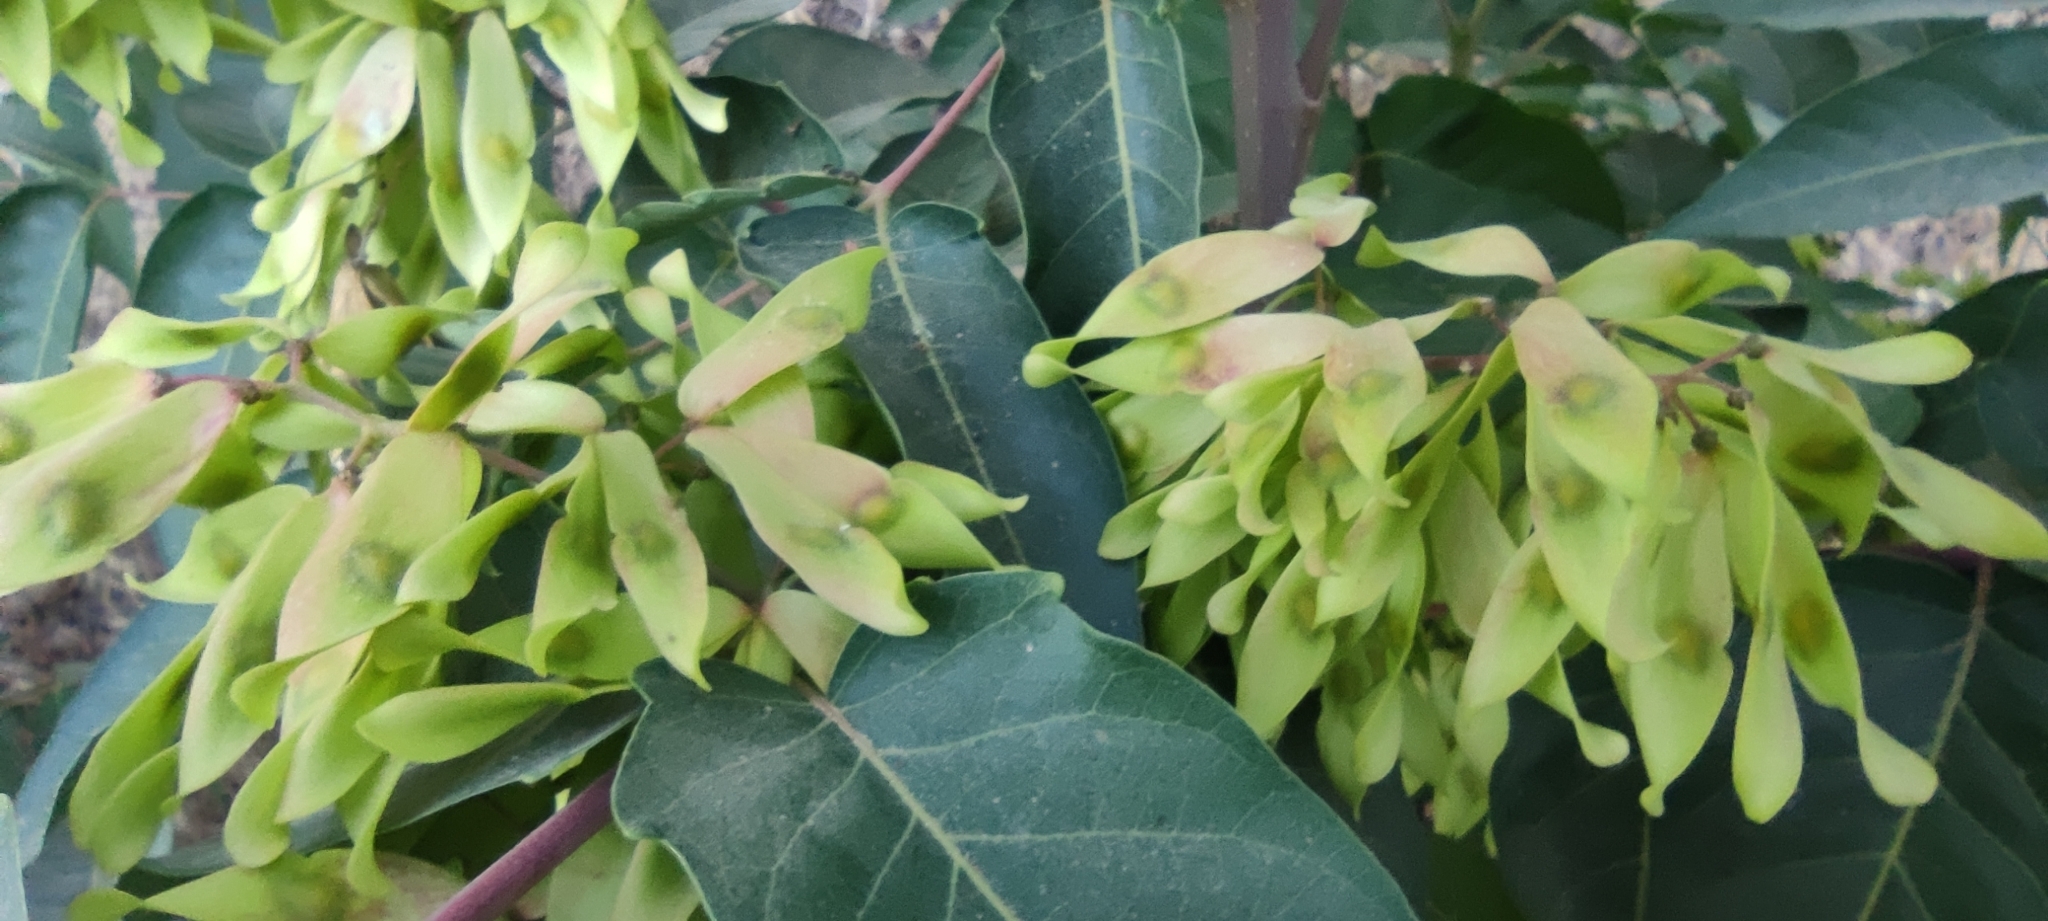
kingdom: Plantae
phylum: Tracheophyta
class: Magnoliopsida
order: Sapindales
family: Simaroubaceae
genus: Ailanthus
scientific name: Ailanthus altissima
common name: Tree-of-heaven
